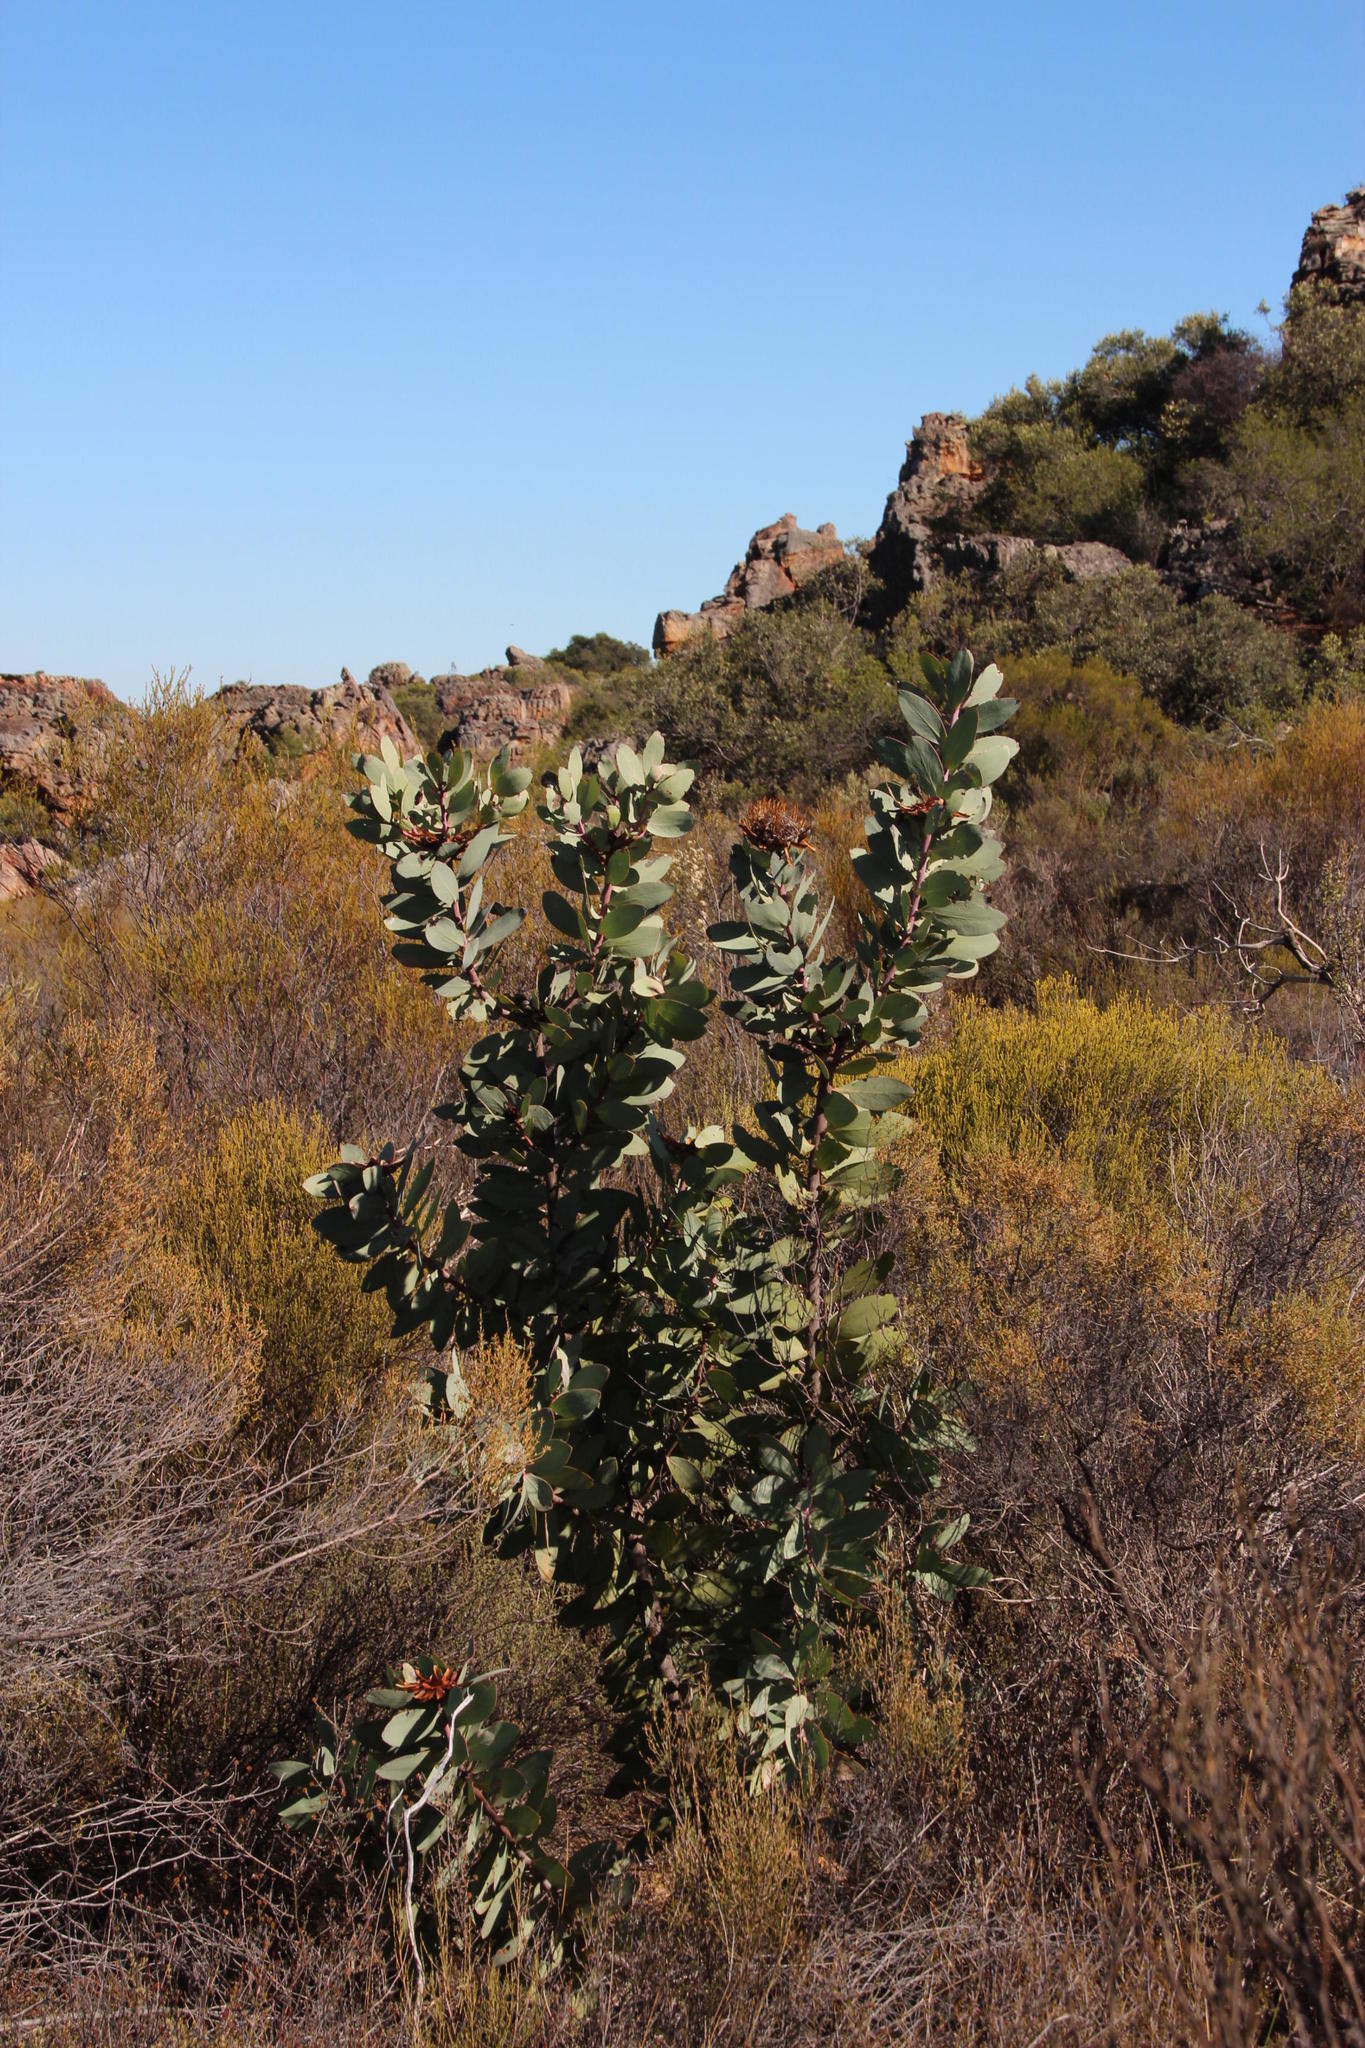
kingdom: Plantae
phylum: Tracheophyta
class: Magnoliopsida
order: Proteales
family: Proteaceae
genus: Protea
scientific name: Protea
